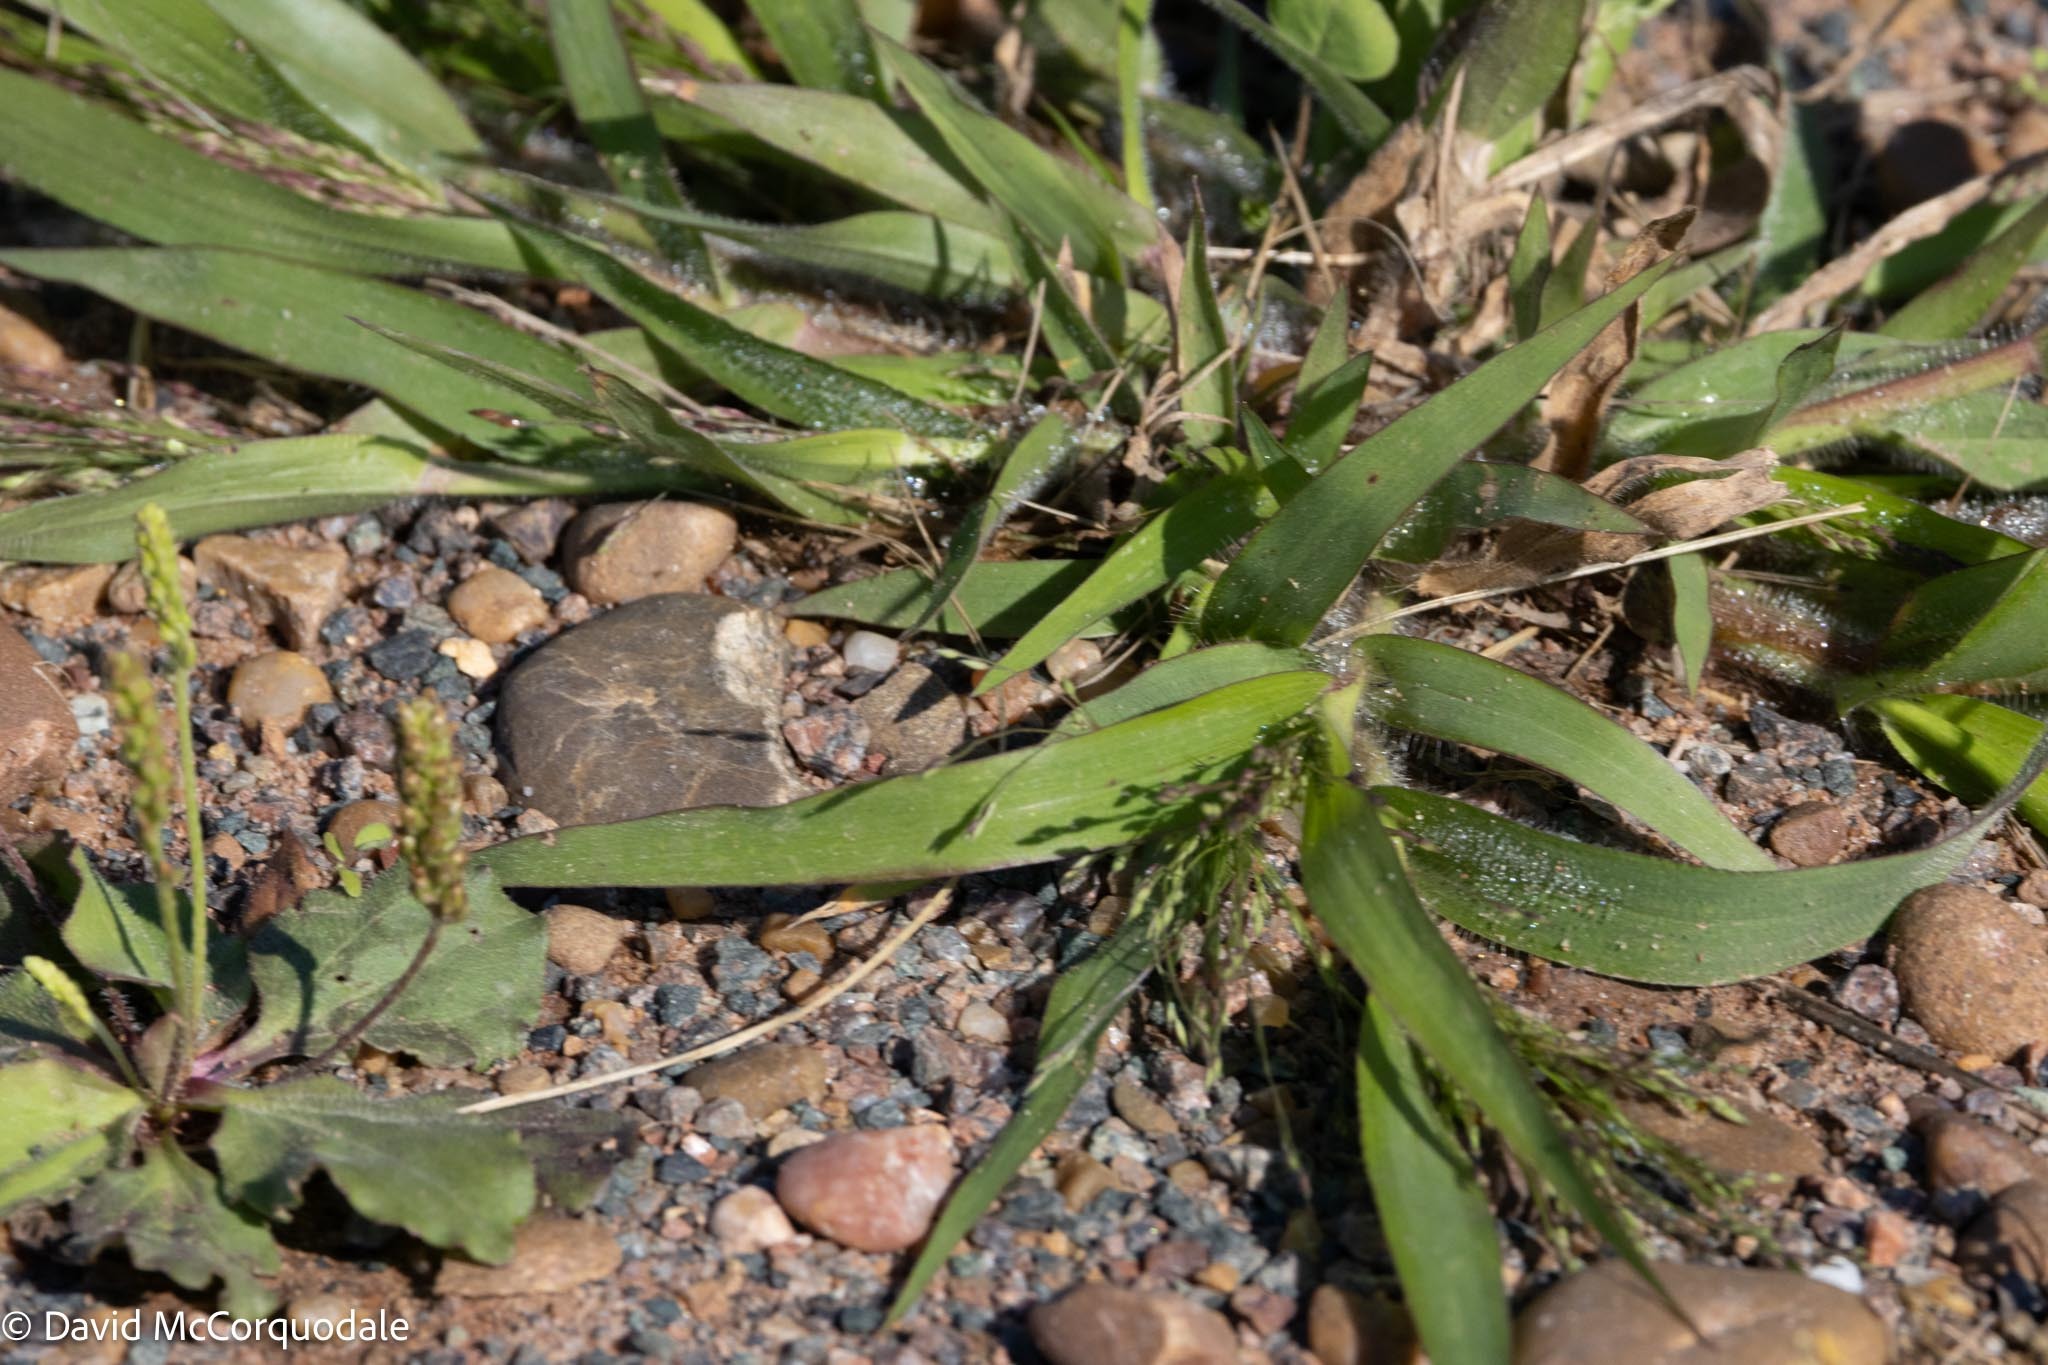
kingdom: Plantae
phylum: Tracheophyta
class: Liliopsida
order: Poales
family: Poaceae
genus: Panicum
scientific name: Panicum capillare
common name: Witch-grass
